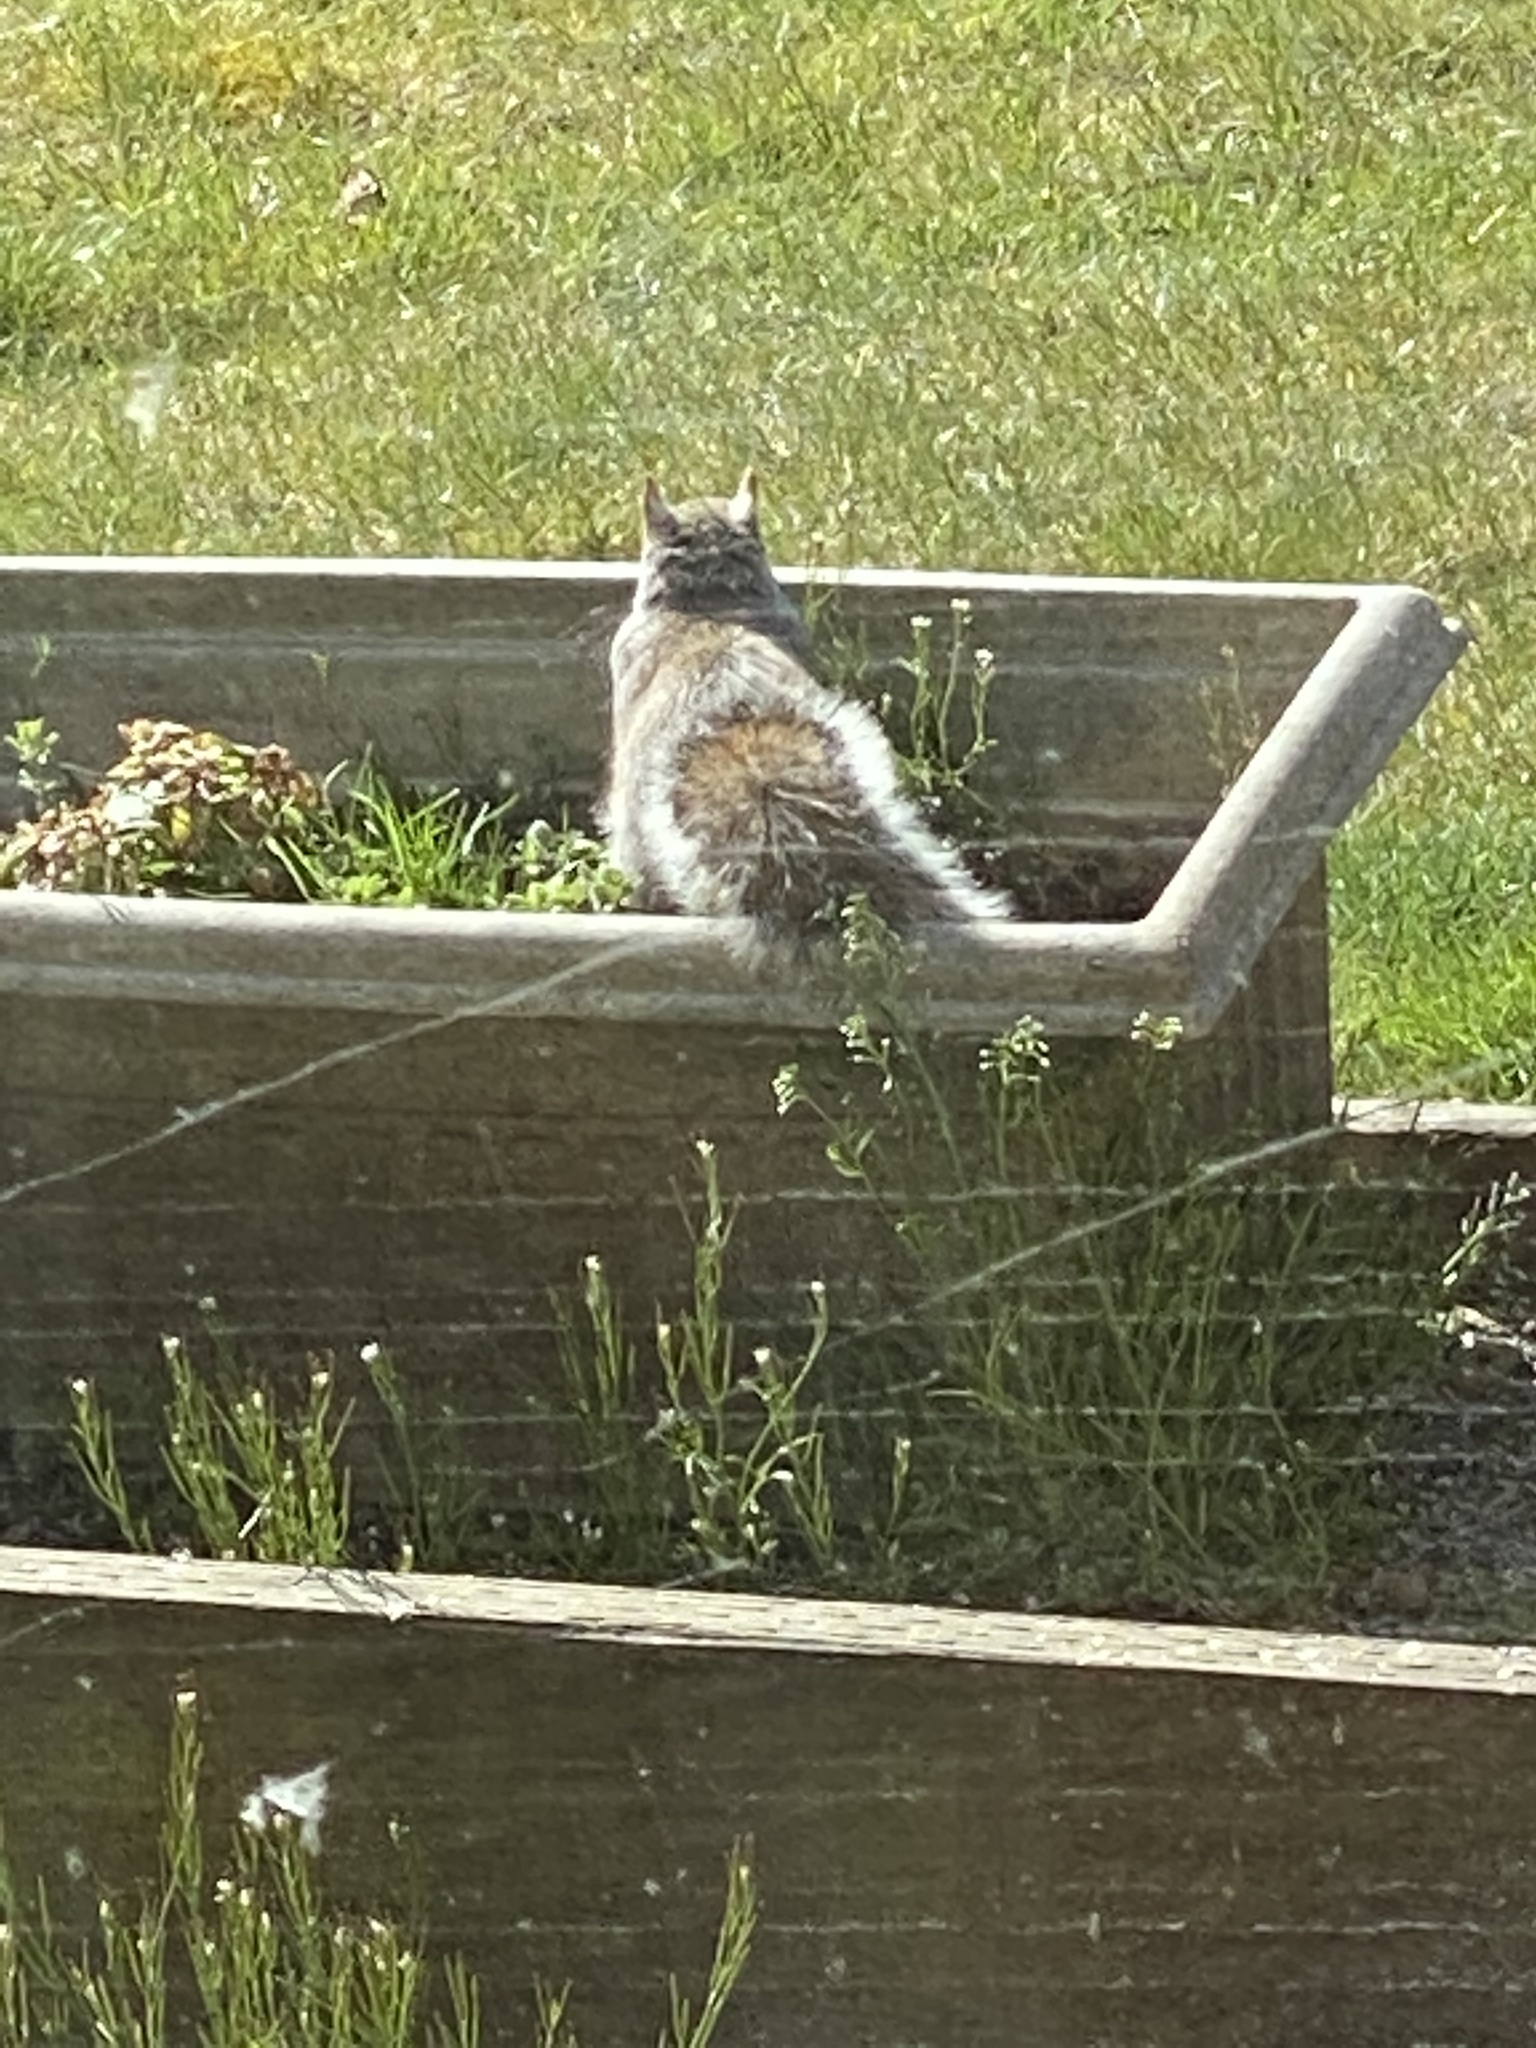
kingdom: Animalia
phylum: Chordata
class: Mammalia
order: Rodentia
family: Sciuridae
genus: Sciurus
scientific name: Sciurus carolinensis
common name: Eastern gray squirrel
